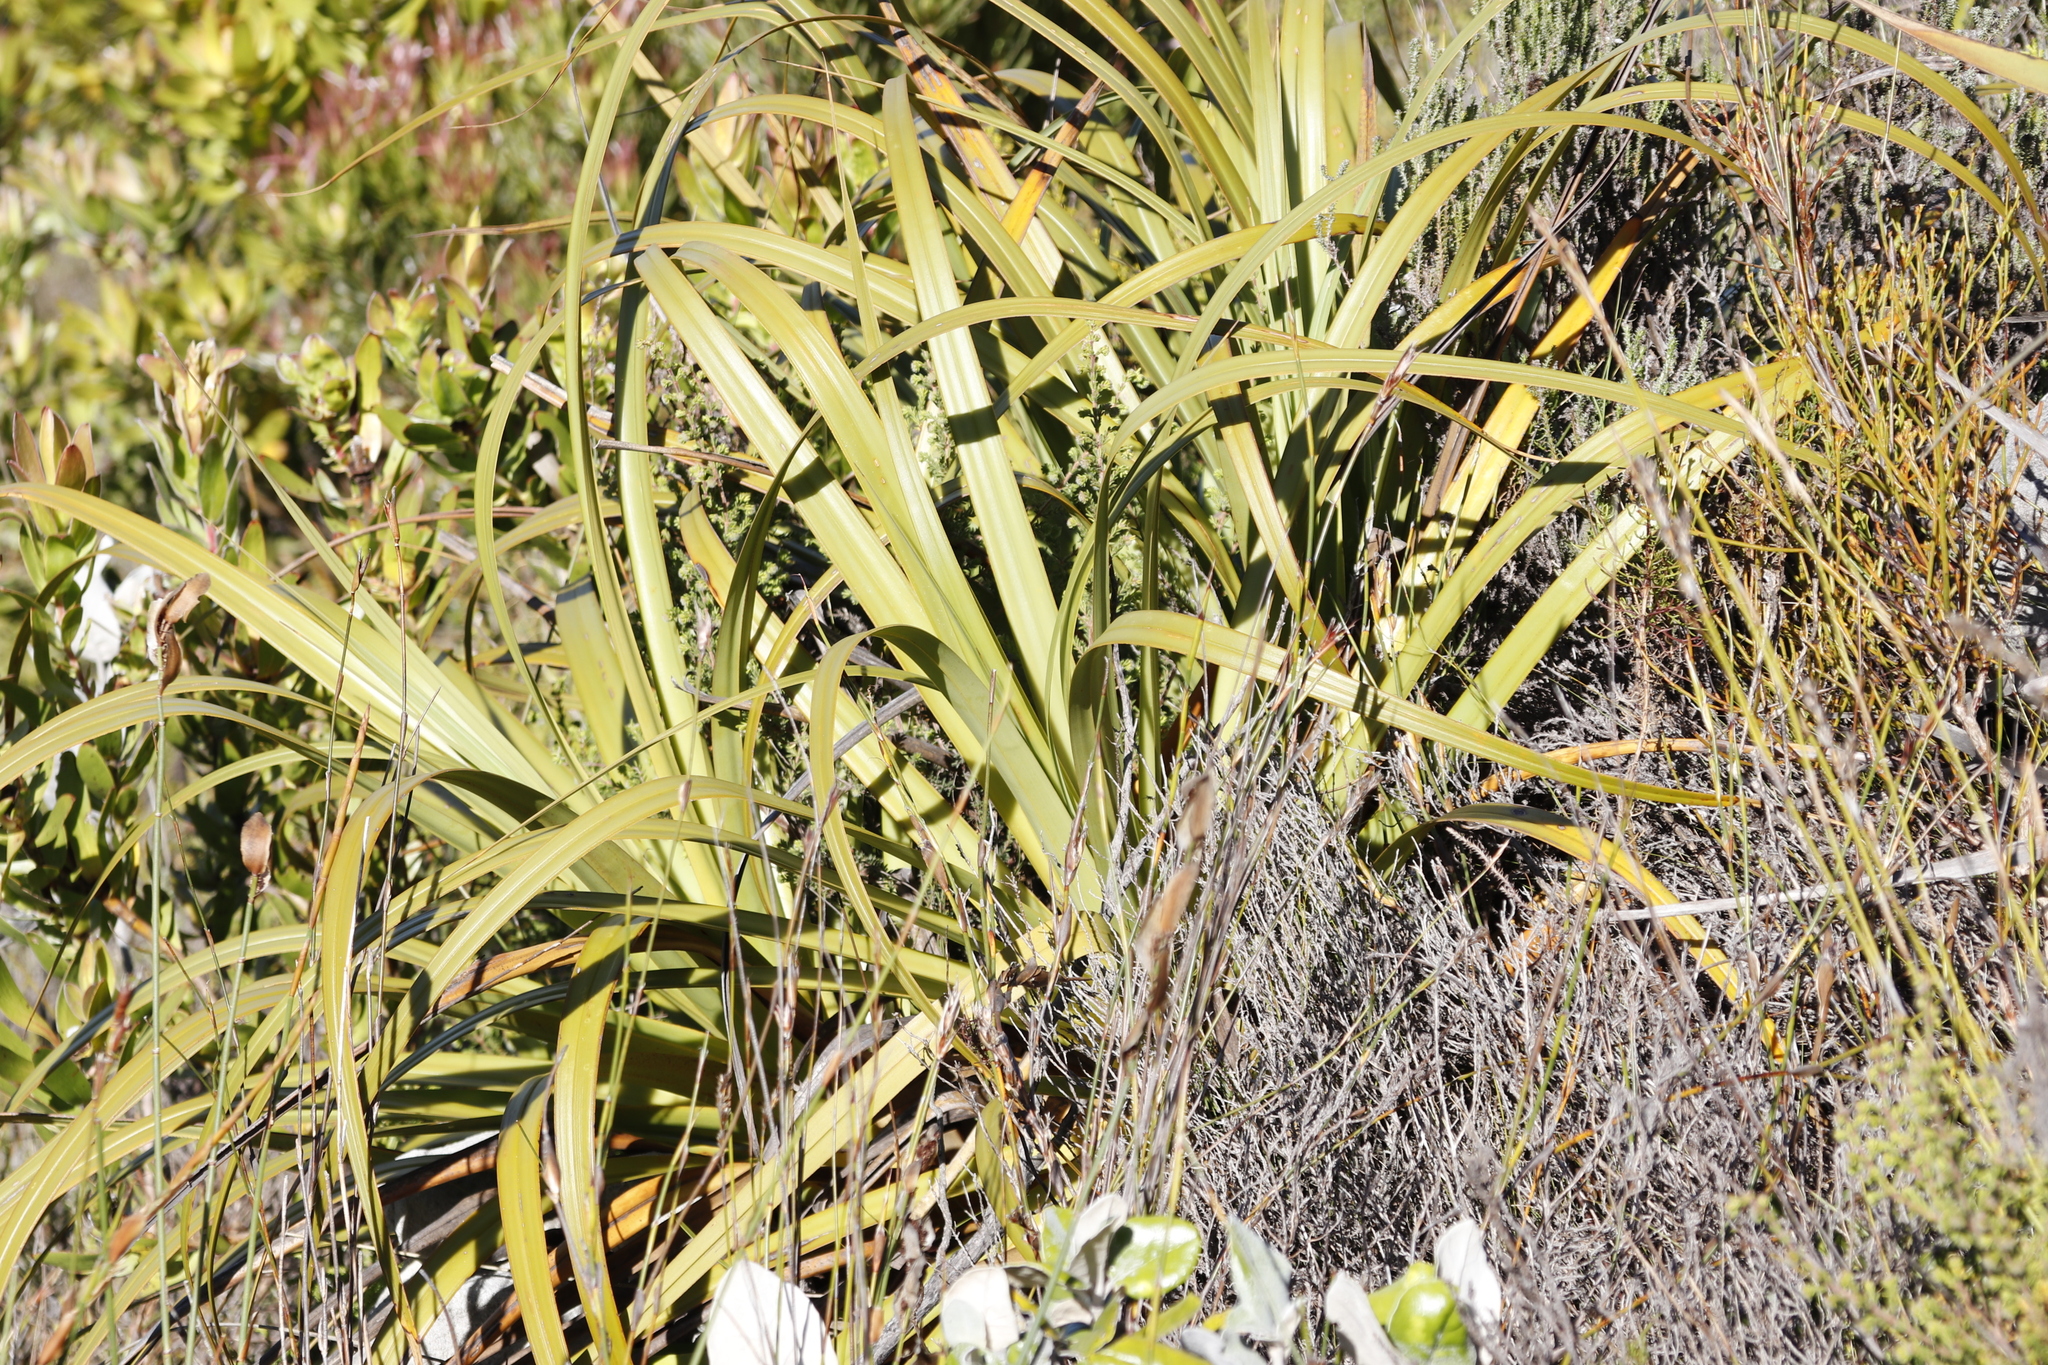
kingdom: Plantae
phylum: Tracheophyta
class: Liliopsida
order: Poales
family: Cyperaceae
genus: Tetraria
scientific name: Tetraria thermalis
